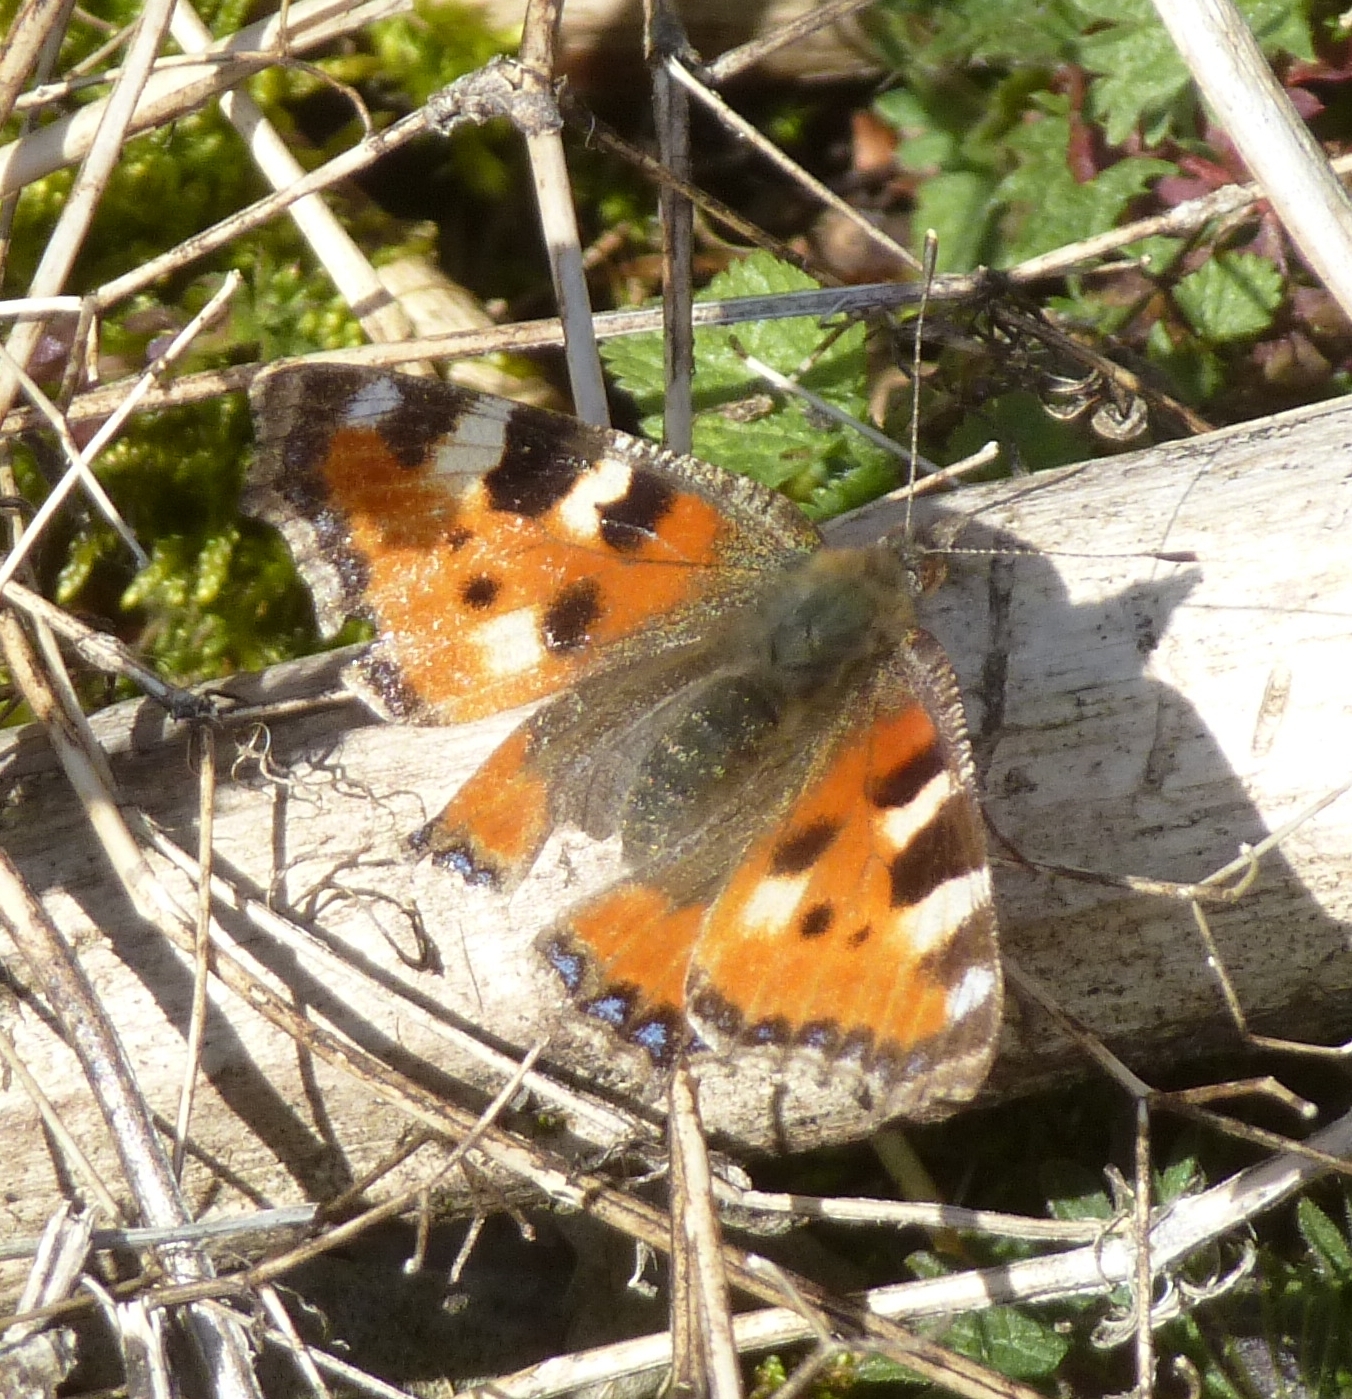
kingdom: Animalia
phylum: Arthropoda
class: Insecta
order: Lepidoptera
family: Nymphalidae
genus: Aglais
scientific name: Aglais urticae
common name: Small tortoiseshell
